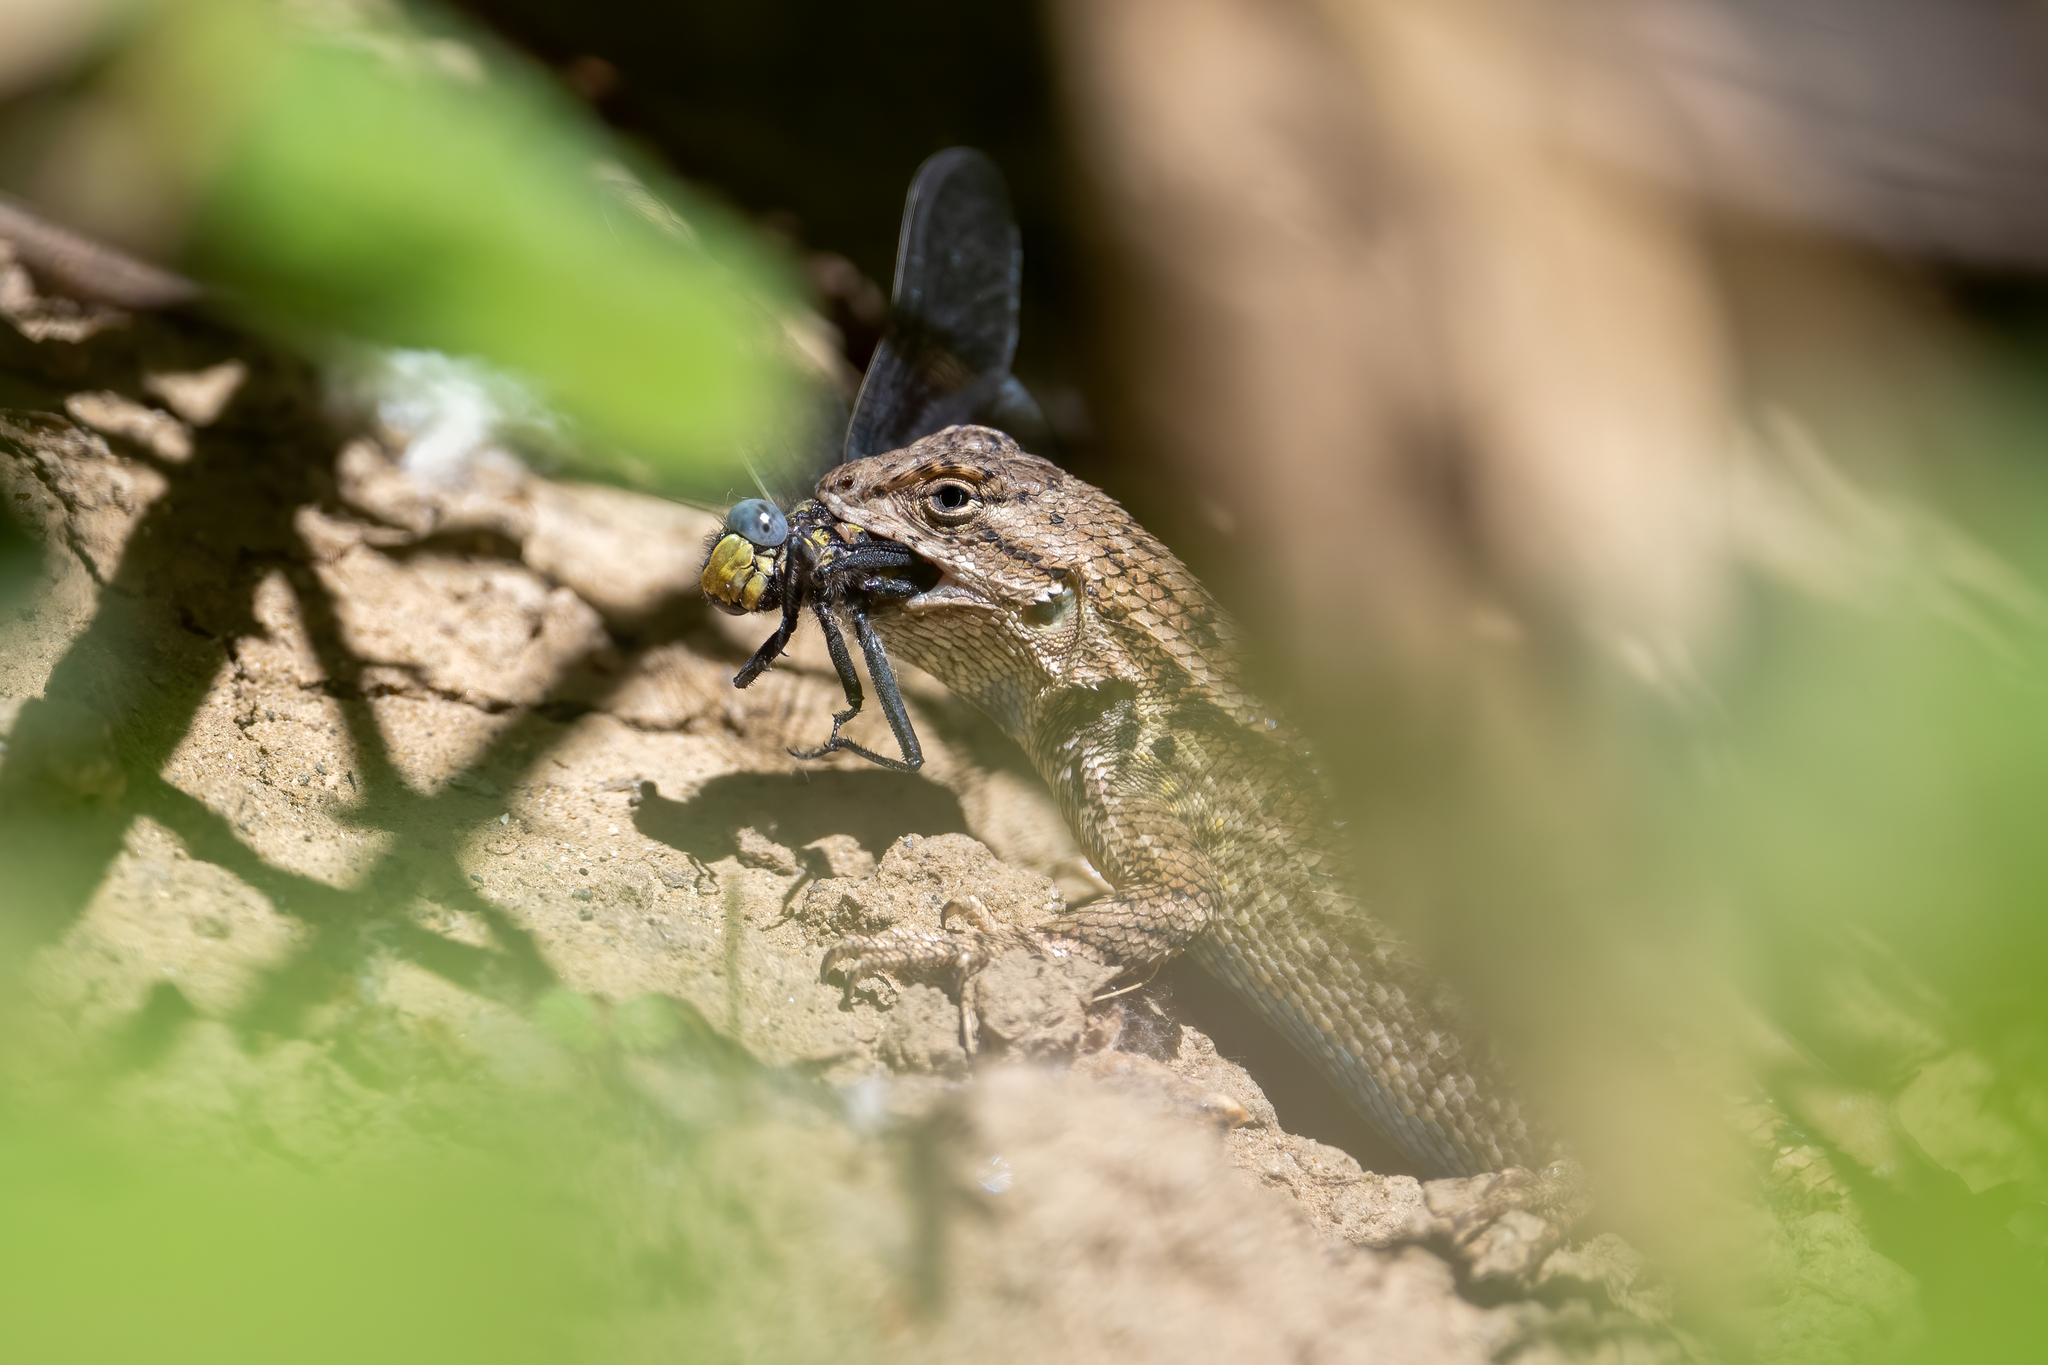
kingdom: Animalia
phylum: Chordata
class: Squamata
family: Phrynosomatidae
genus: Sceloporus
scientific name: Sceloporus occidentalis
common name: Western fence lizard
